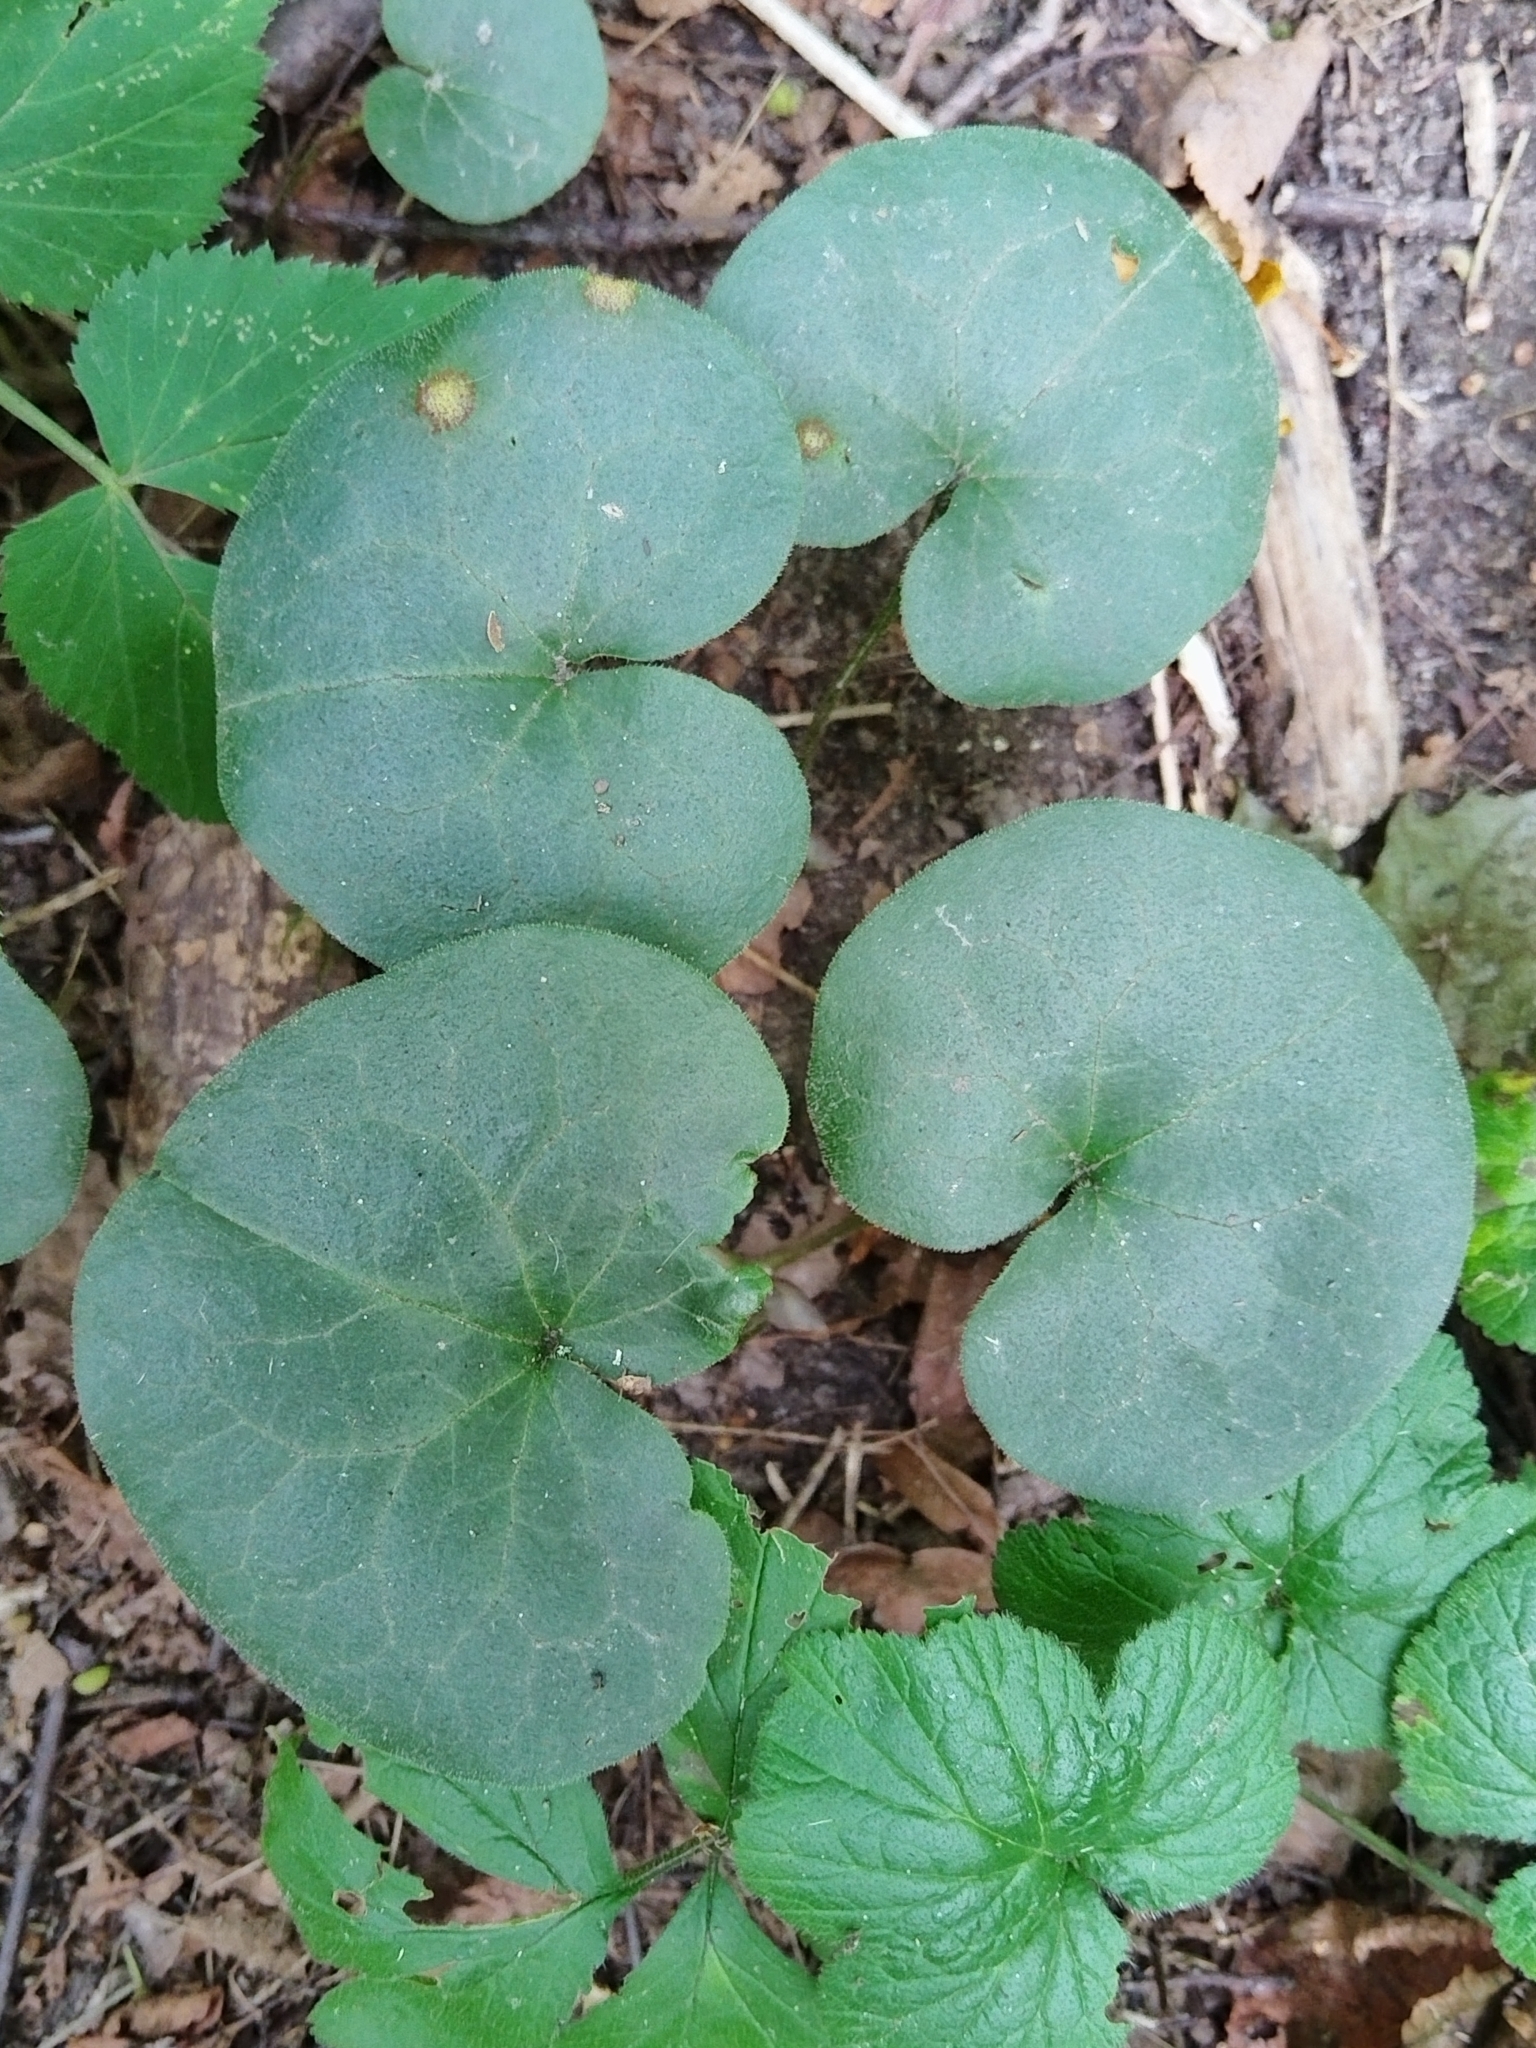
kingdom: Plantae
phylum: Tracheophyta
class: Magnoliopsida
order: Piperales
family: Aristolochiaceae
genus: Asarum
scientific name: Asarum europaeum
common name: Asarabacca
